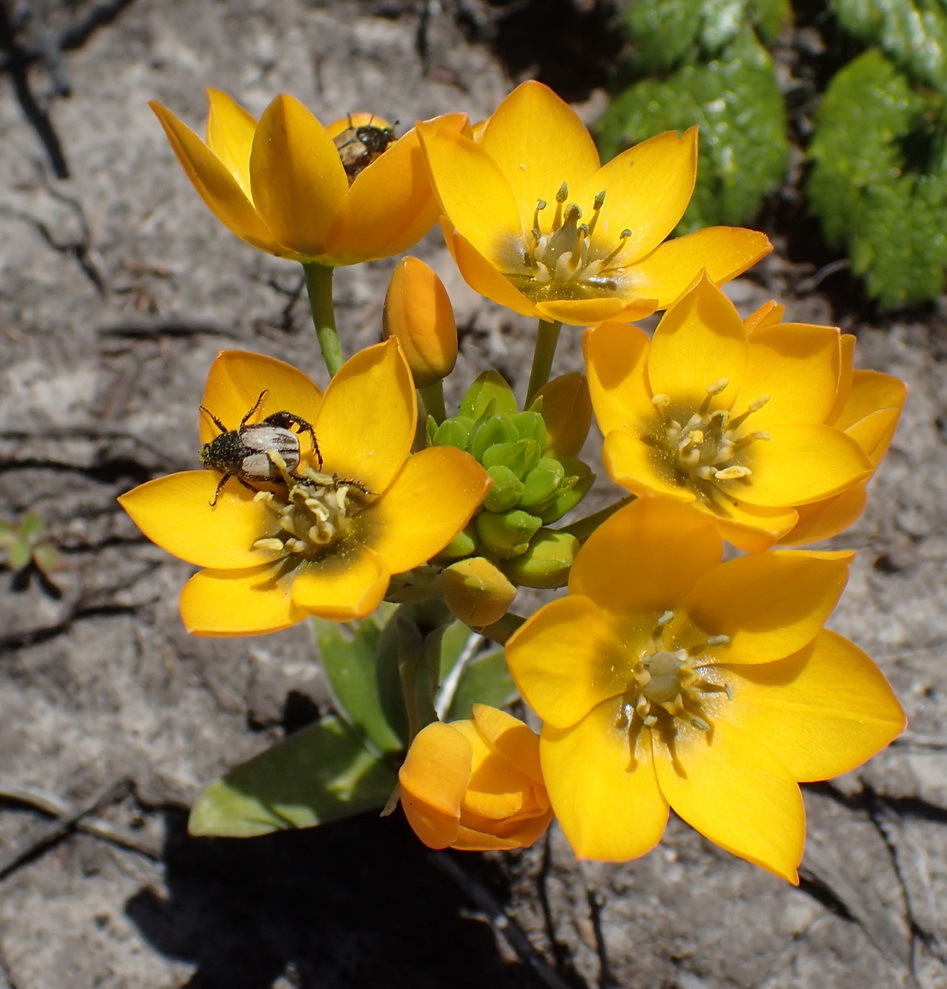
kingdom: Plantae
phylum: Tracheophyta
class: Liliopsida
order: Asparagales
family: Asparagaceae
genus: Ornithogalum
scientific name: Ornithogalum dubium
